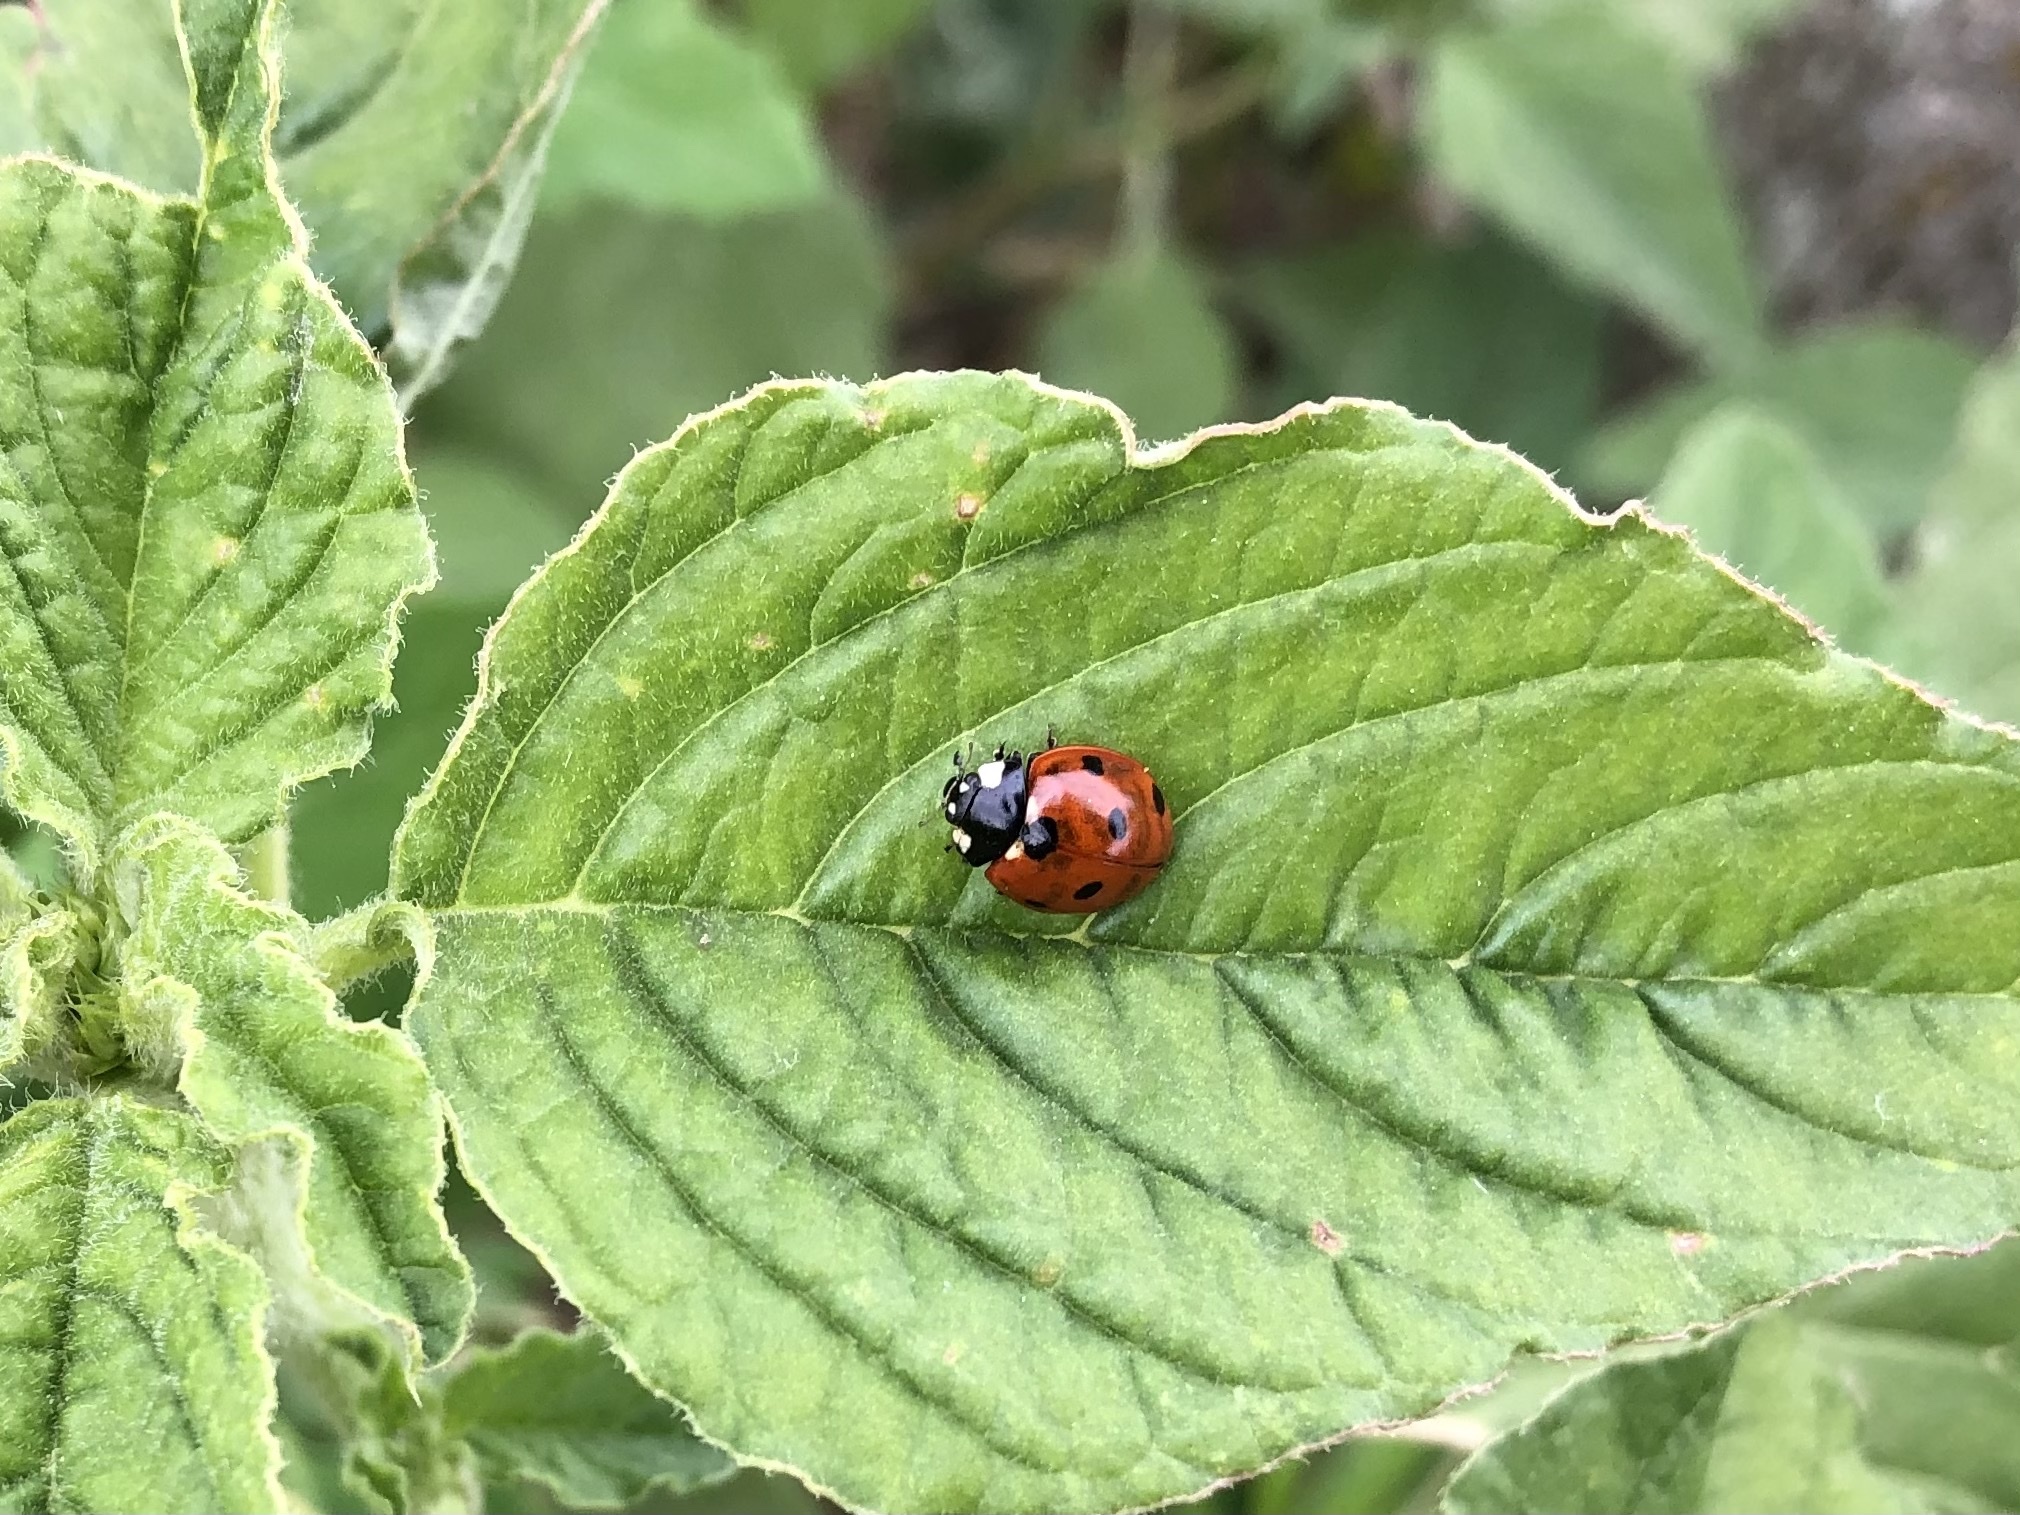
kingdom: Animalia
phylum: Arthropoda
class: Insecta
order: Coleoptera
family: Coccinellidae
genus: Coccinella
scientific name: Coccinella septempunctata
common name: Sevenspotted lady beetle
